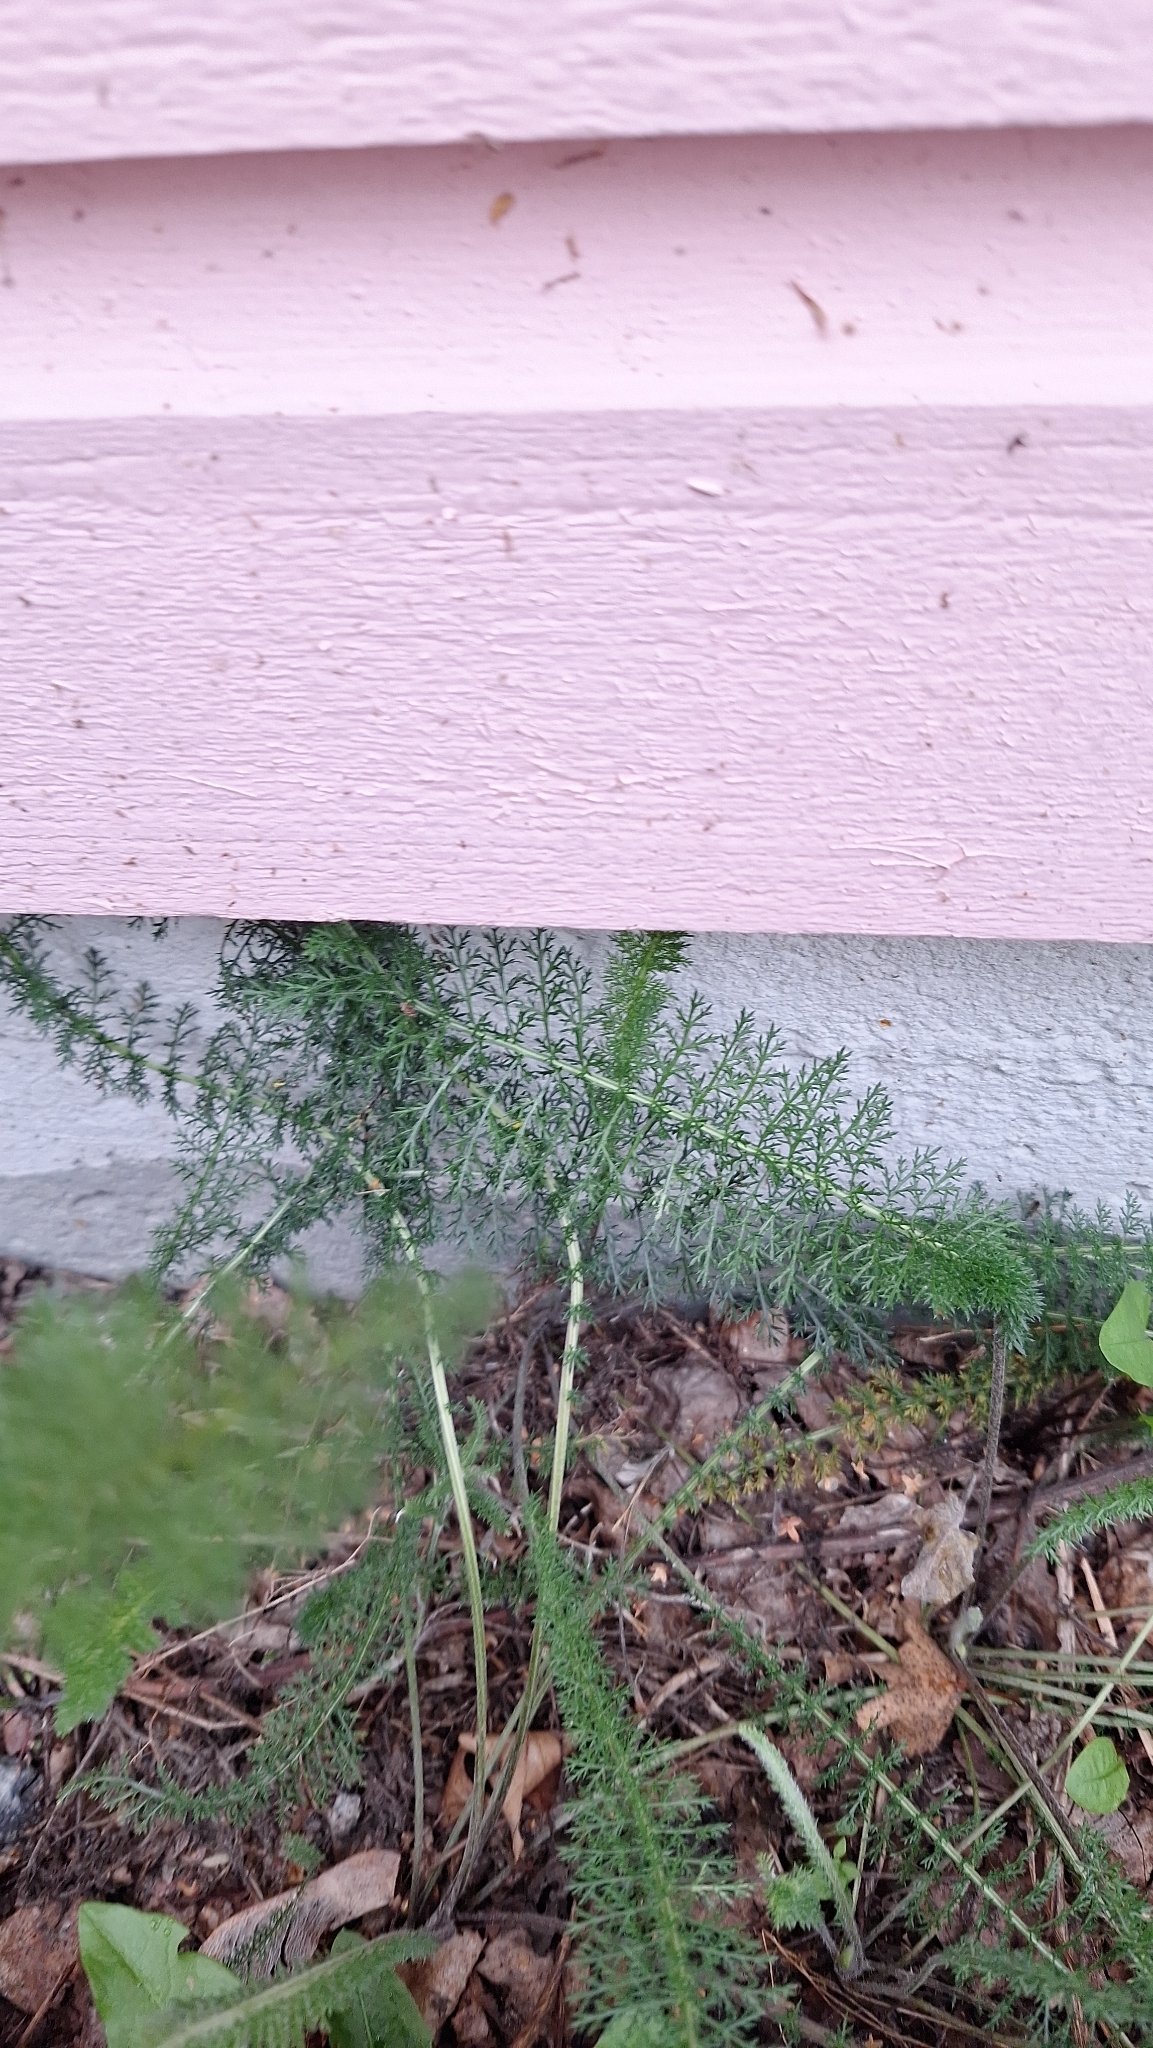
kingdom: Plantae
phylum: Tracheophyta
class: Magnoliopsida
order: Asterales
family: Asteraceae
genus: Achillea
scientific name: Achillea millefolium
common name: Yarrow
